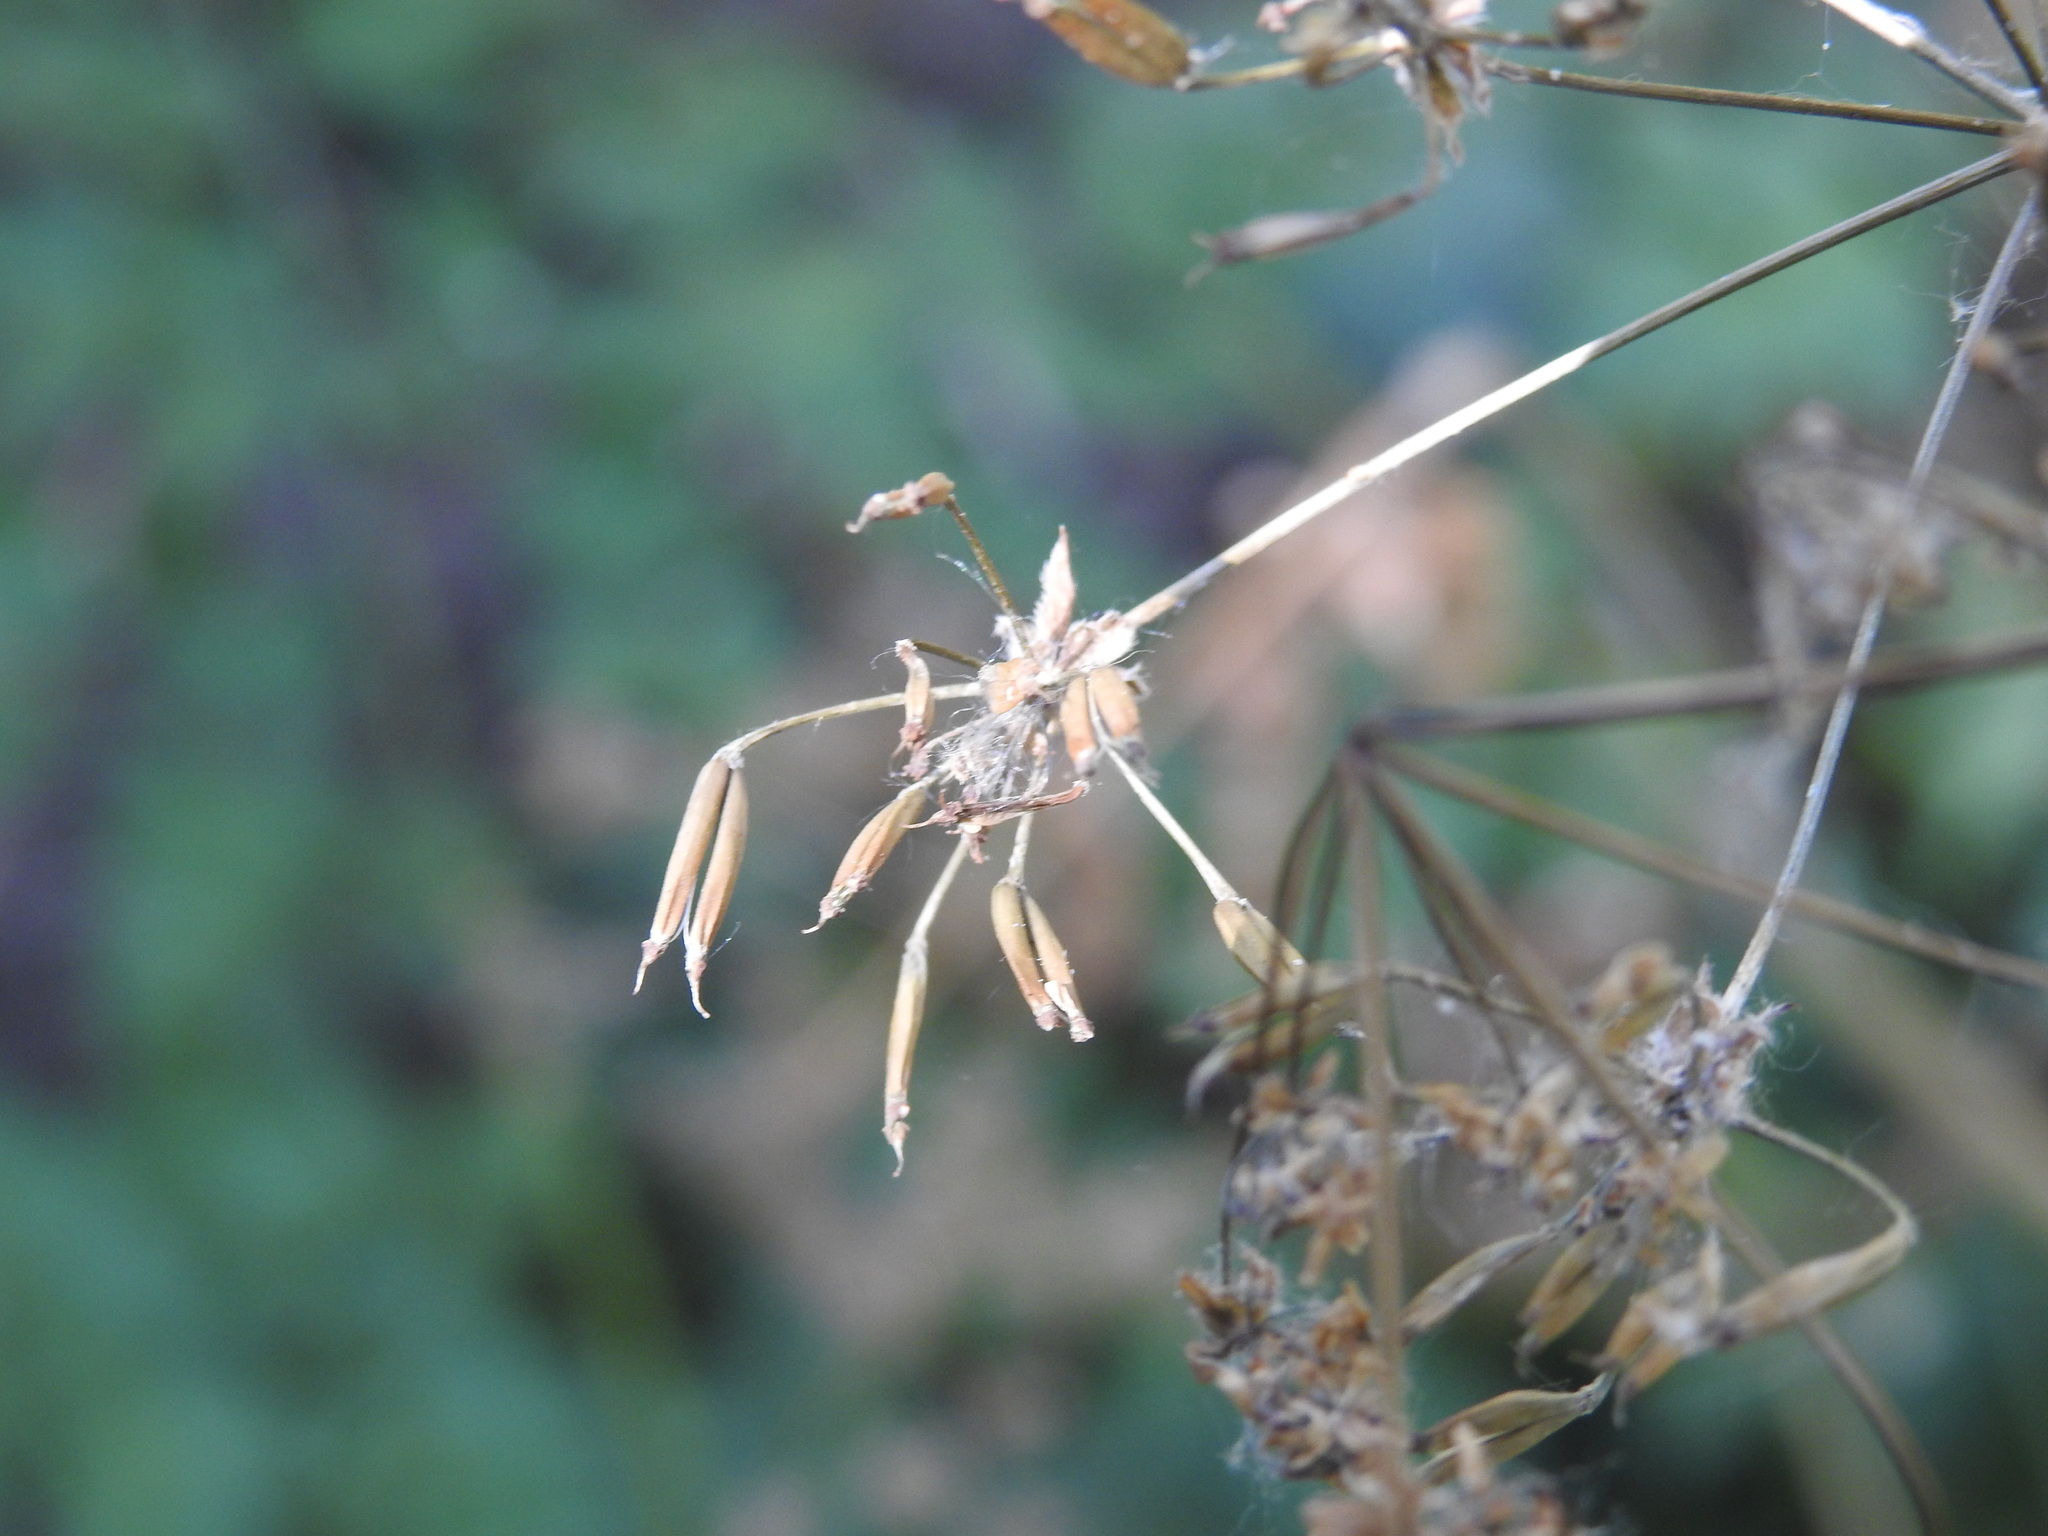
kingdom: Plantae
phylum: Tracheophyta
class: Magnoliopsida
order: Apiales
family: Apiaceae
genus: Anthriscus
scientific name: Anthriscus sylvestris
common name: Cow parsley
